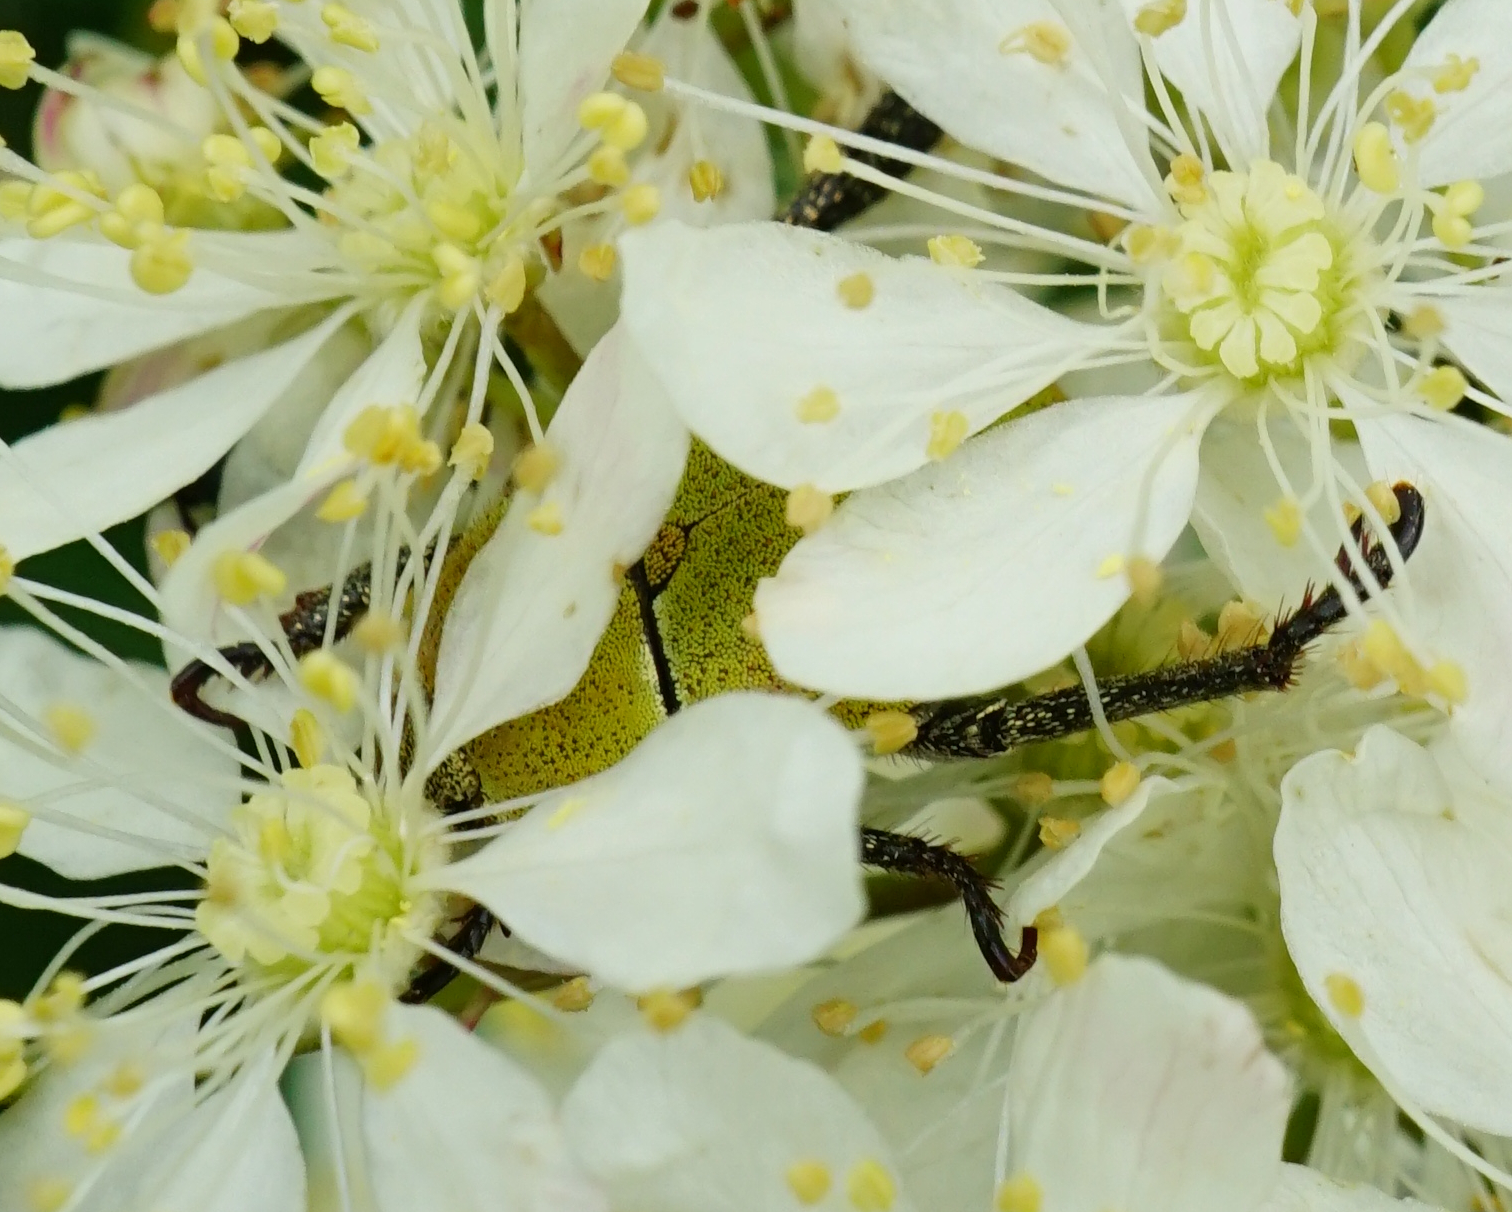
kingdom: Animalia
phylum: Arthropoda
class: Insecta
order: Coleoptera
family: Scarabaeidae
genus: Hoplia
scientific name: Hoplia argentea
